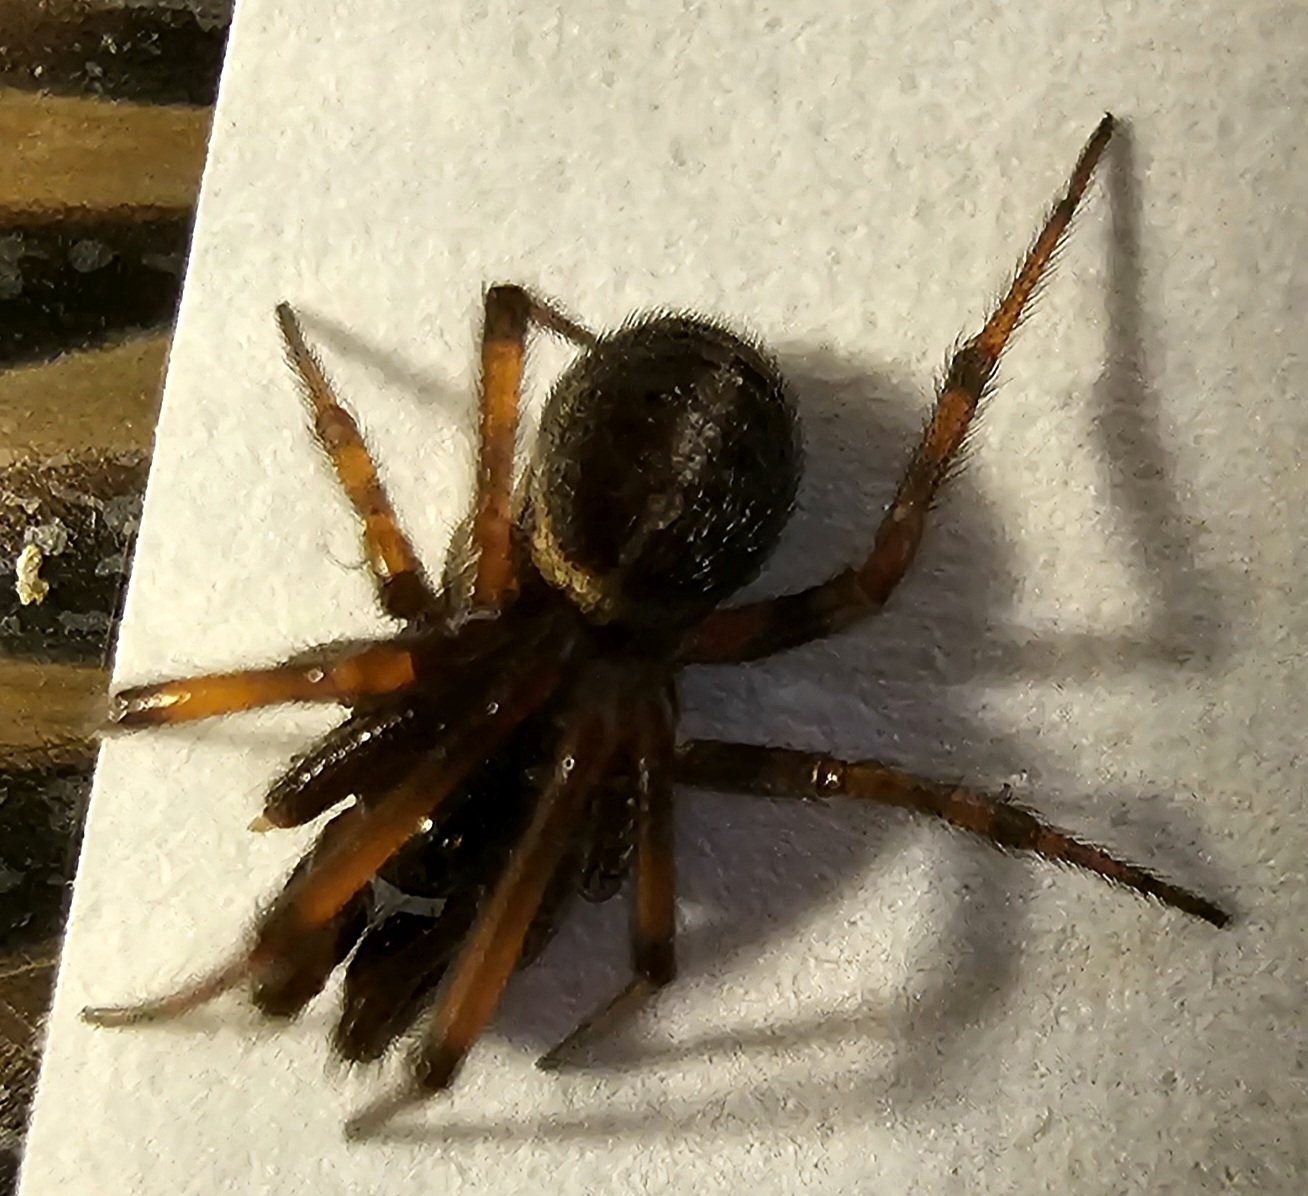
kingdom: Animalia
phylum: Arthropoda
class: Arachnida
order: Araneae
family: Theridiidae
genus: Steatoda
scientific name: Steatoda bipunctata
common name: False widow
